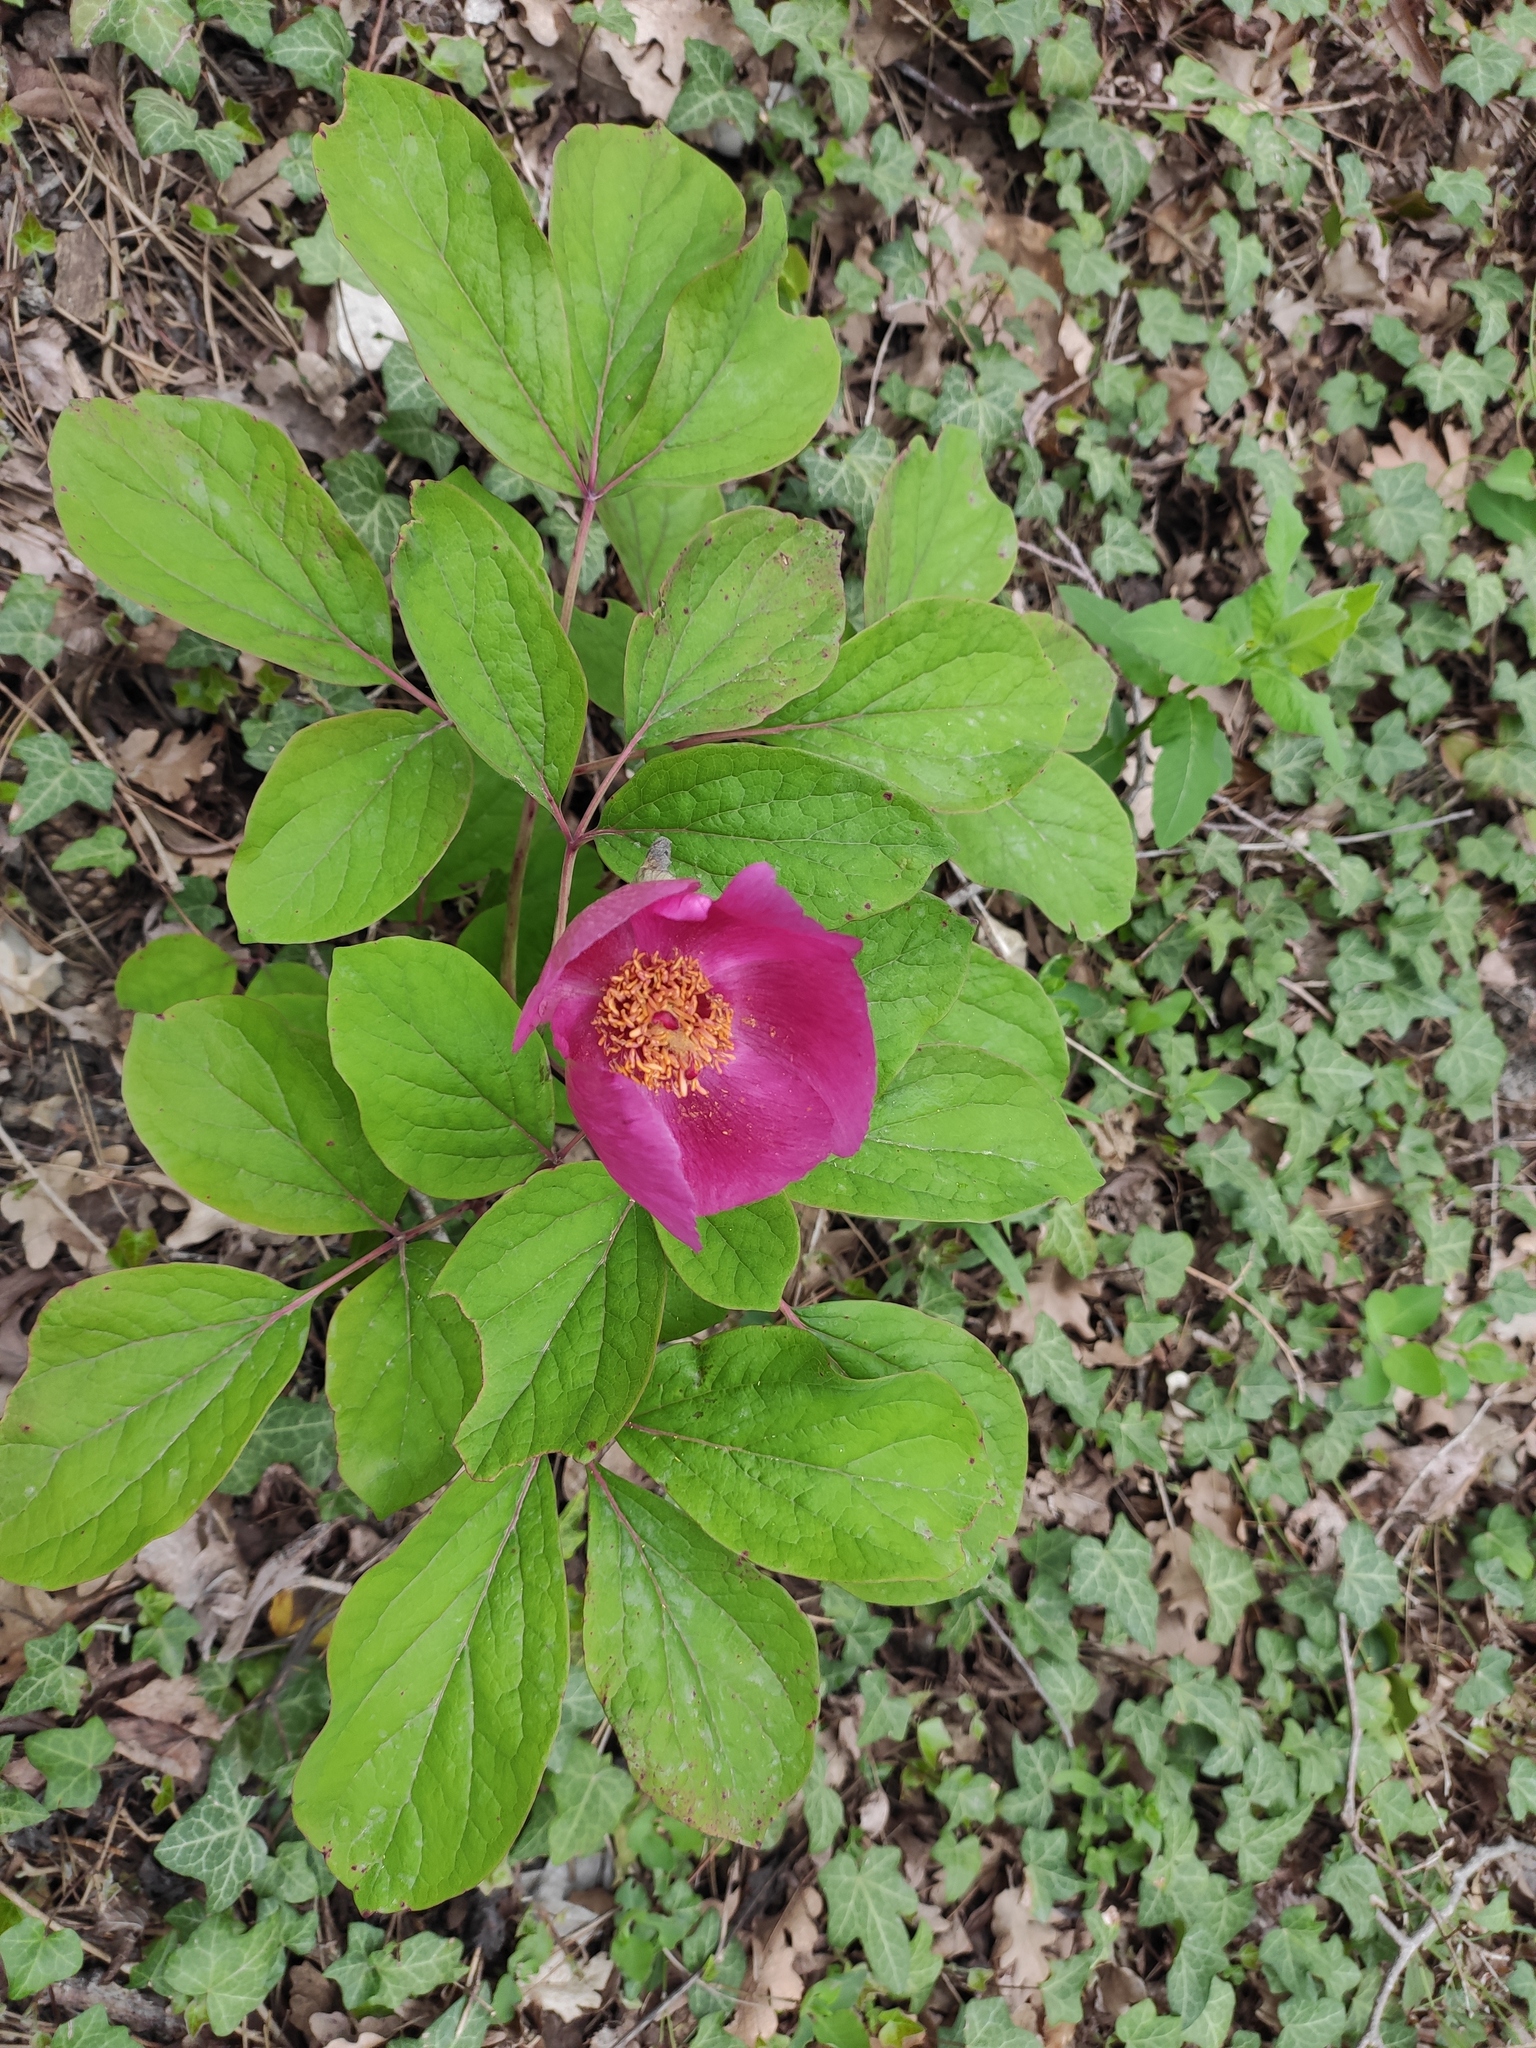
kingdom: Plantae
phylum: Tracheophyta
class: Magnoliopsida
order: Saxifragales
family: Paeoniaceae
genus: Paeonia
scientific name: Paeonia caucasica
